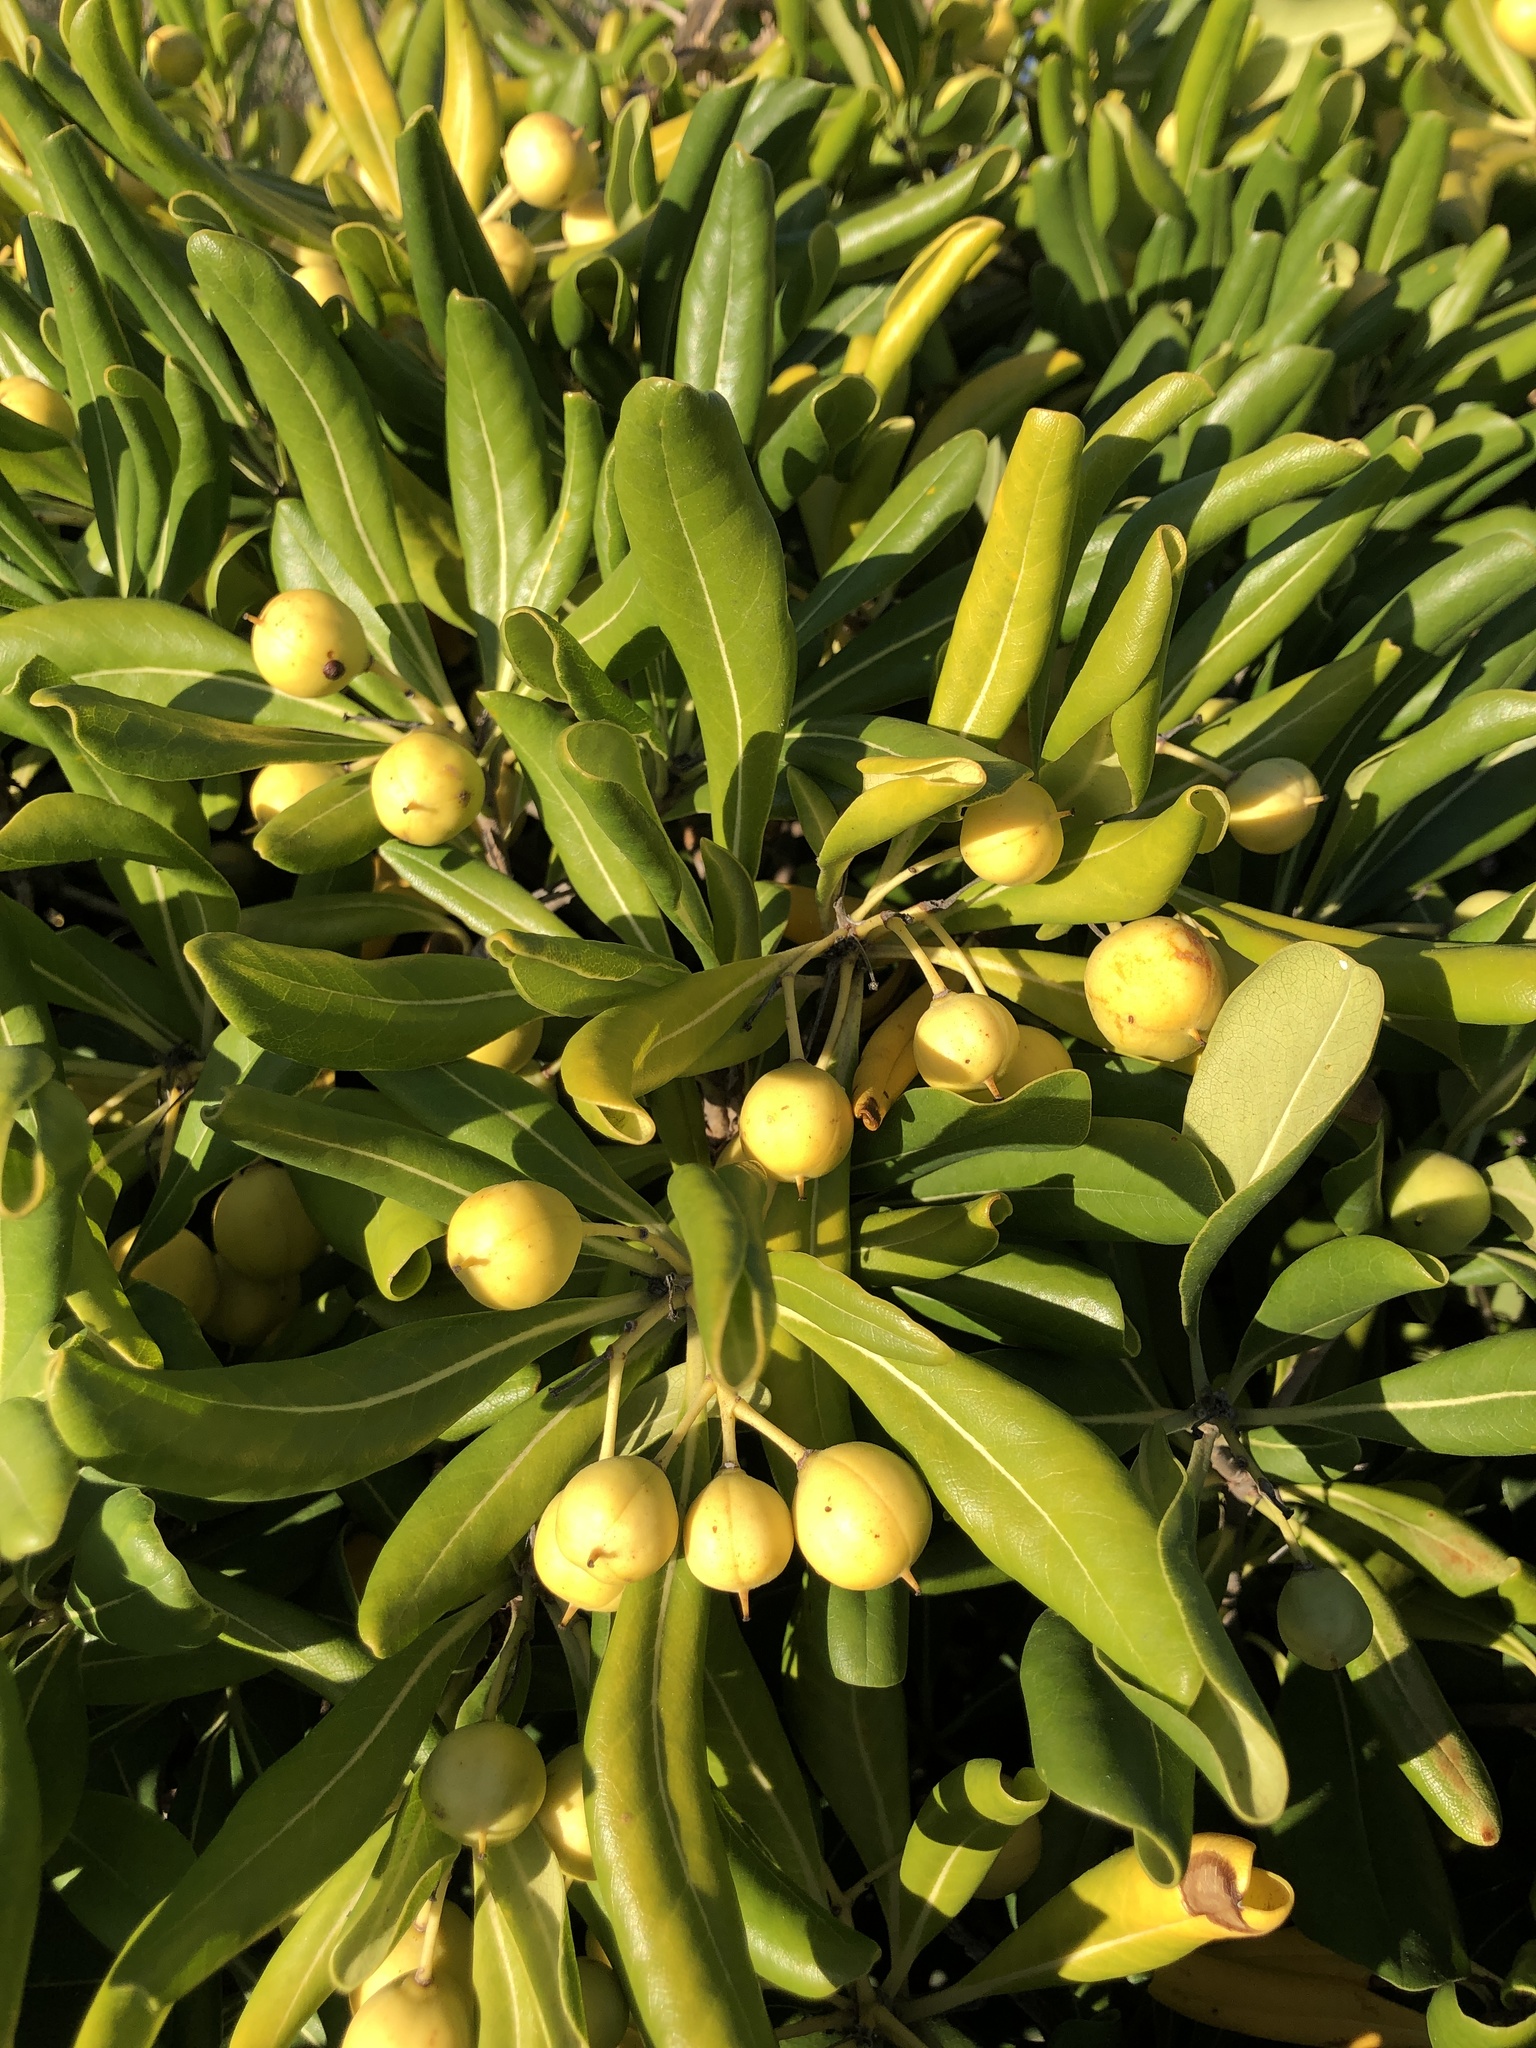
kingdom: Plantae
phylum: Tracheophyta
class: Magnoliopsida
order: Apiales
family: Pittosporaceae
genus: Pittosporum
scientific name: Pittosporum tobira
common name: Japanese cheesewood
